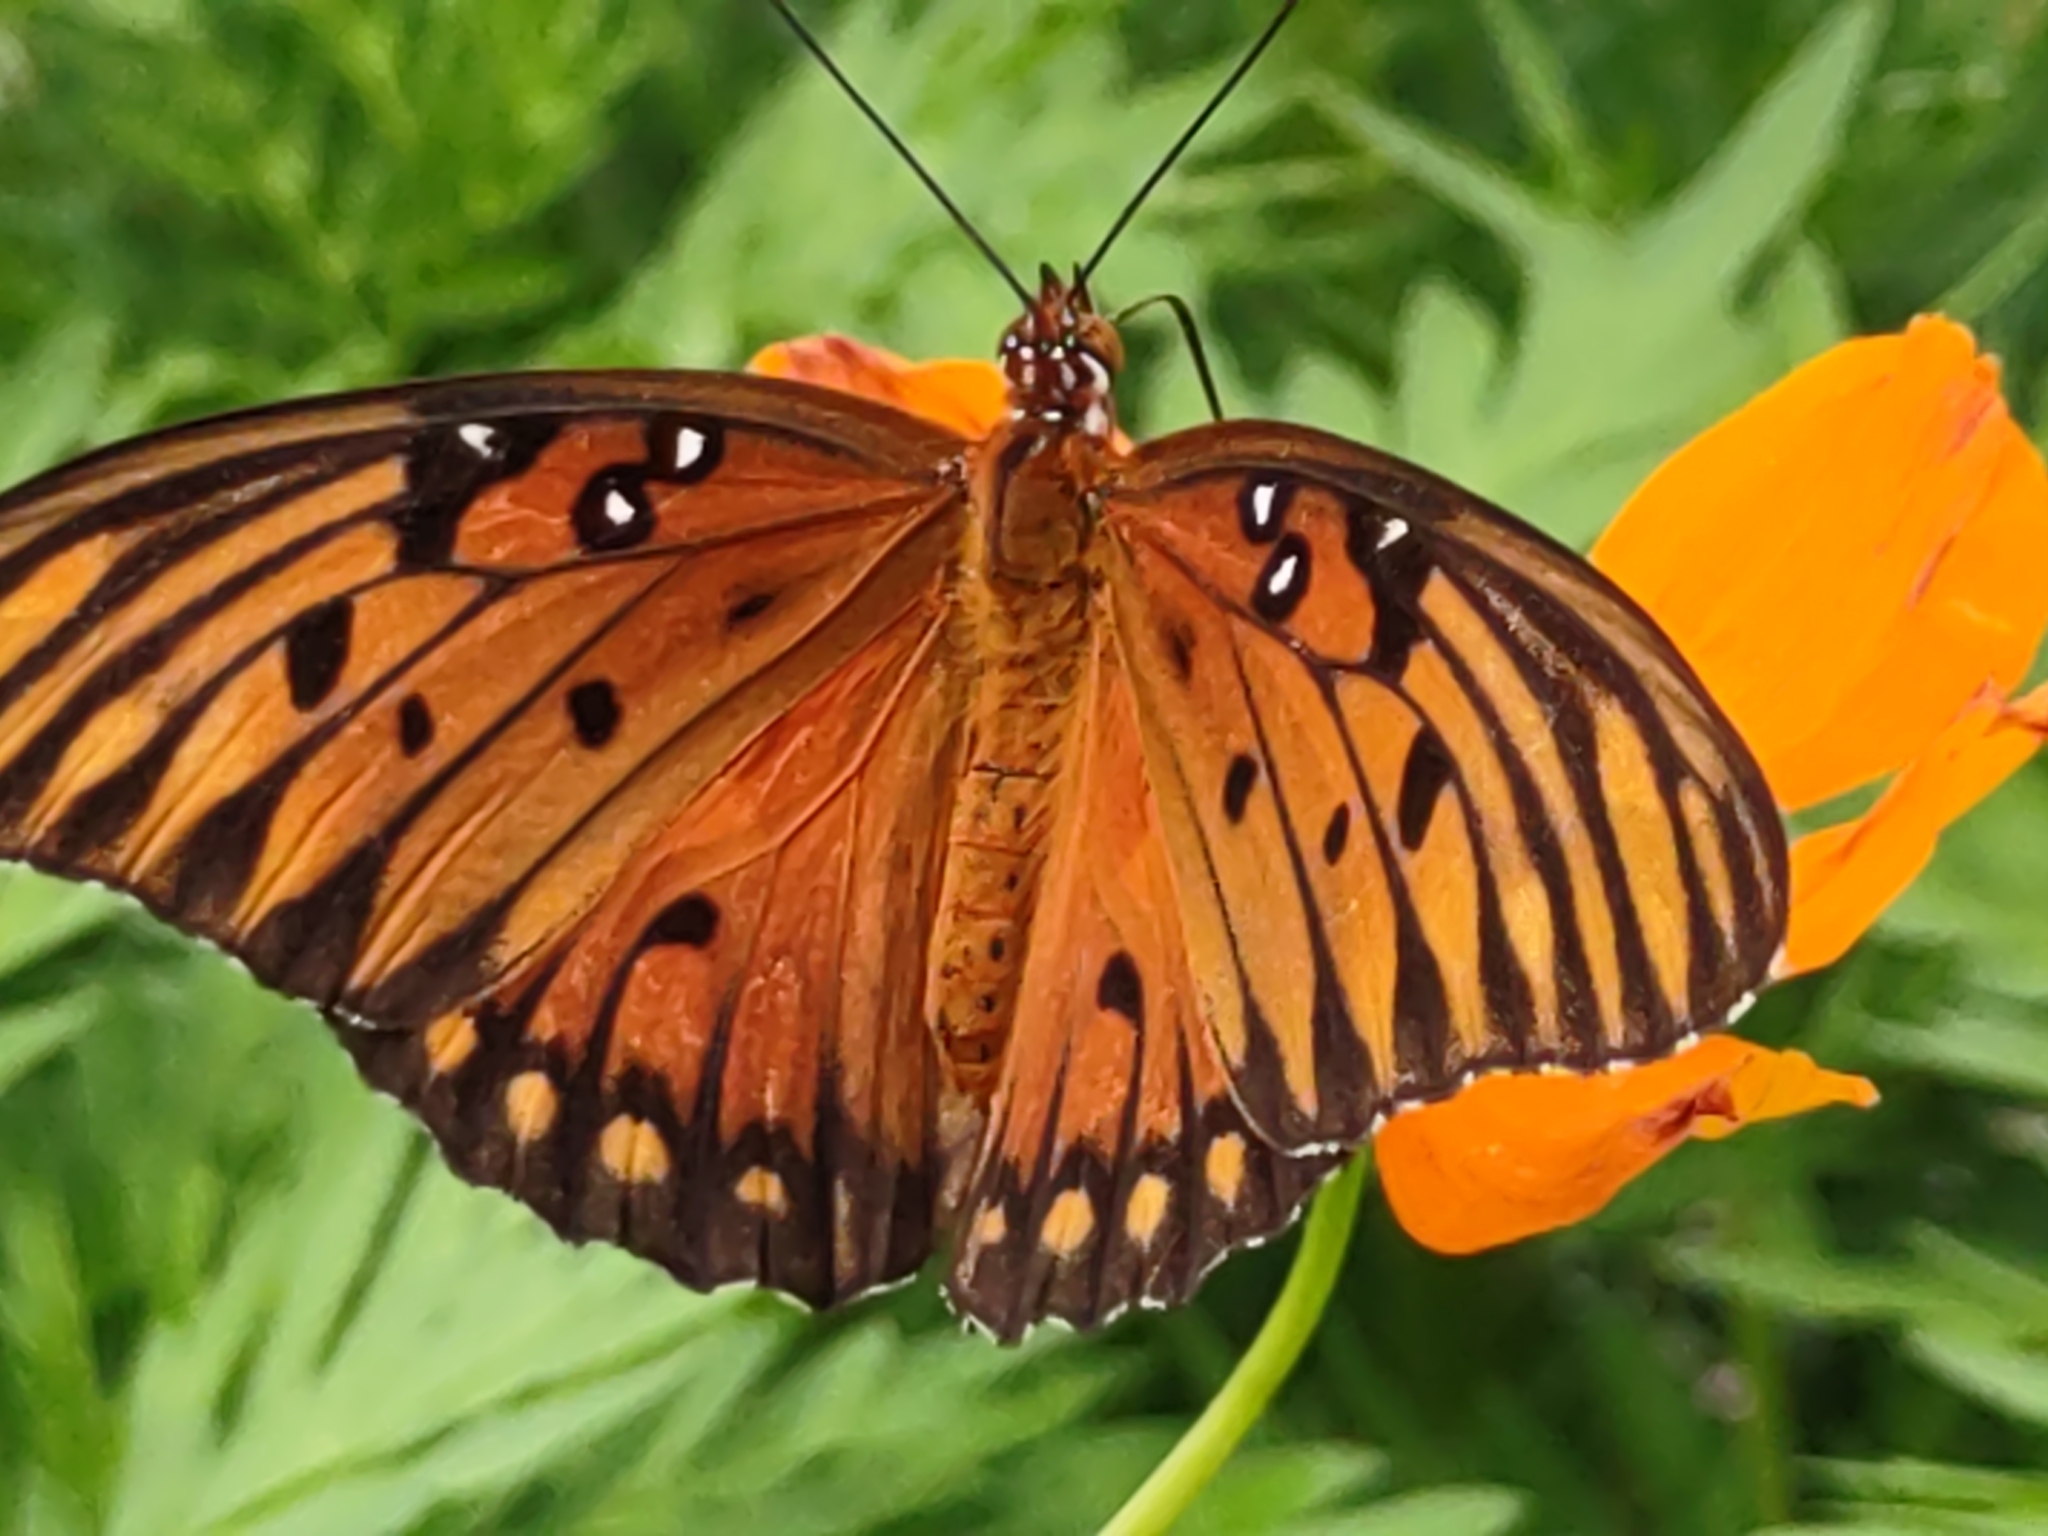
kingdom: Animalia
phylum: Arthropoda
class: Insecta
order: Lepidoptera
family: Nymphalidae
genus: Dione
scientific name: Dione vanillae
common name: Gulf fritillary
